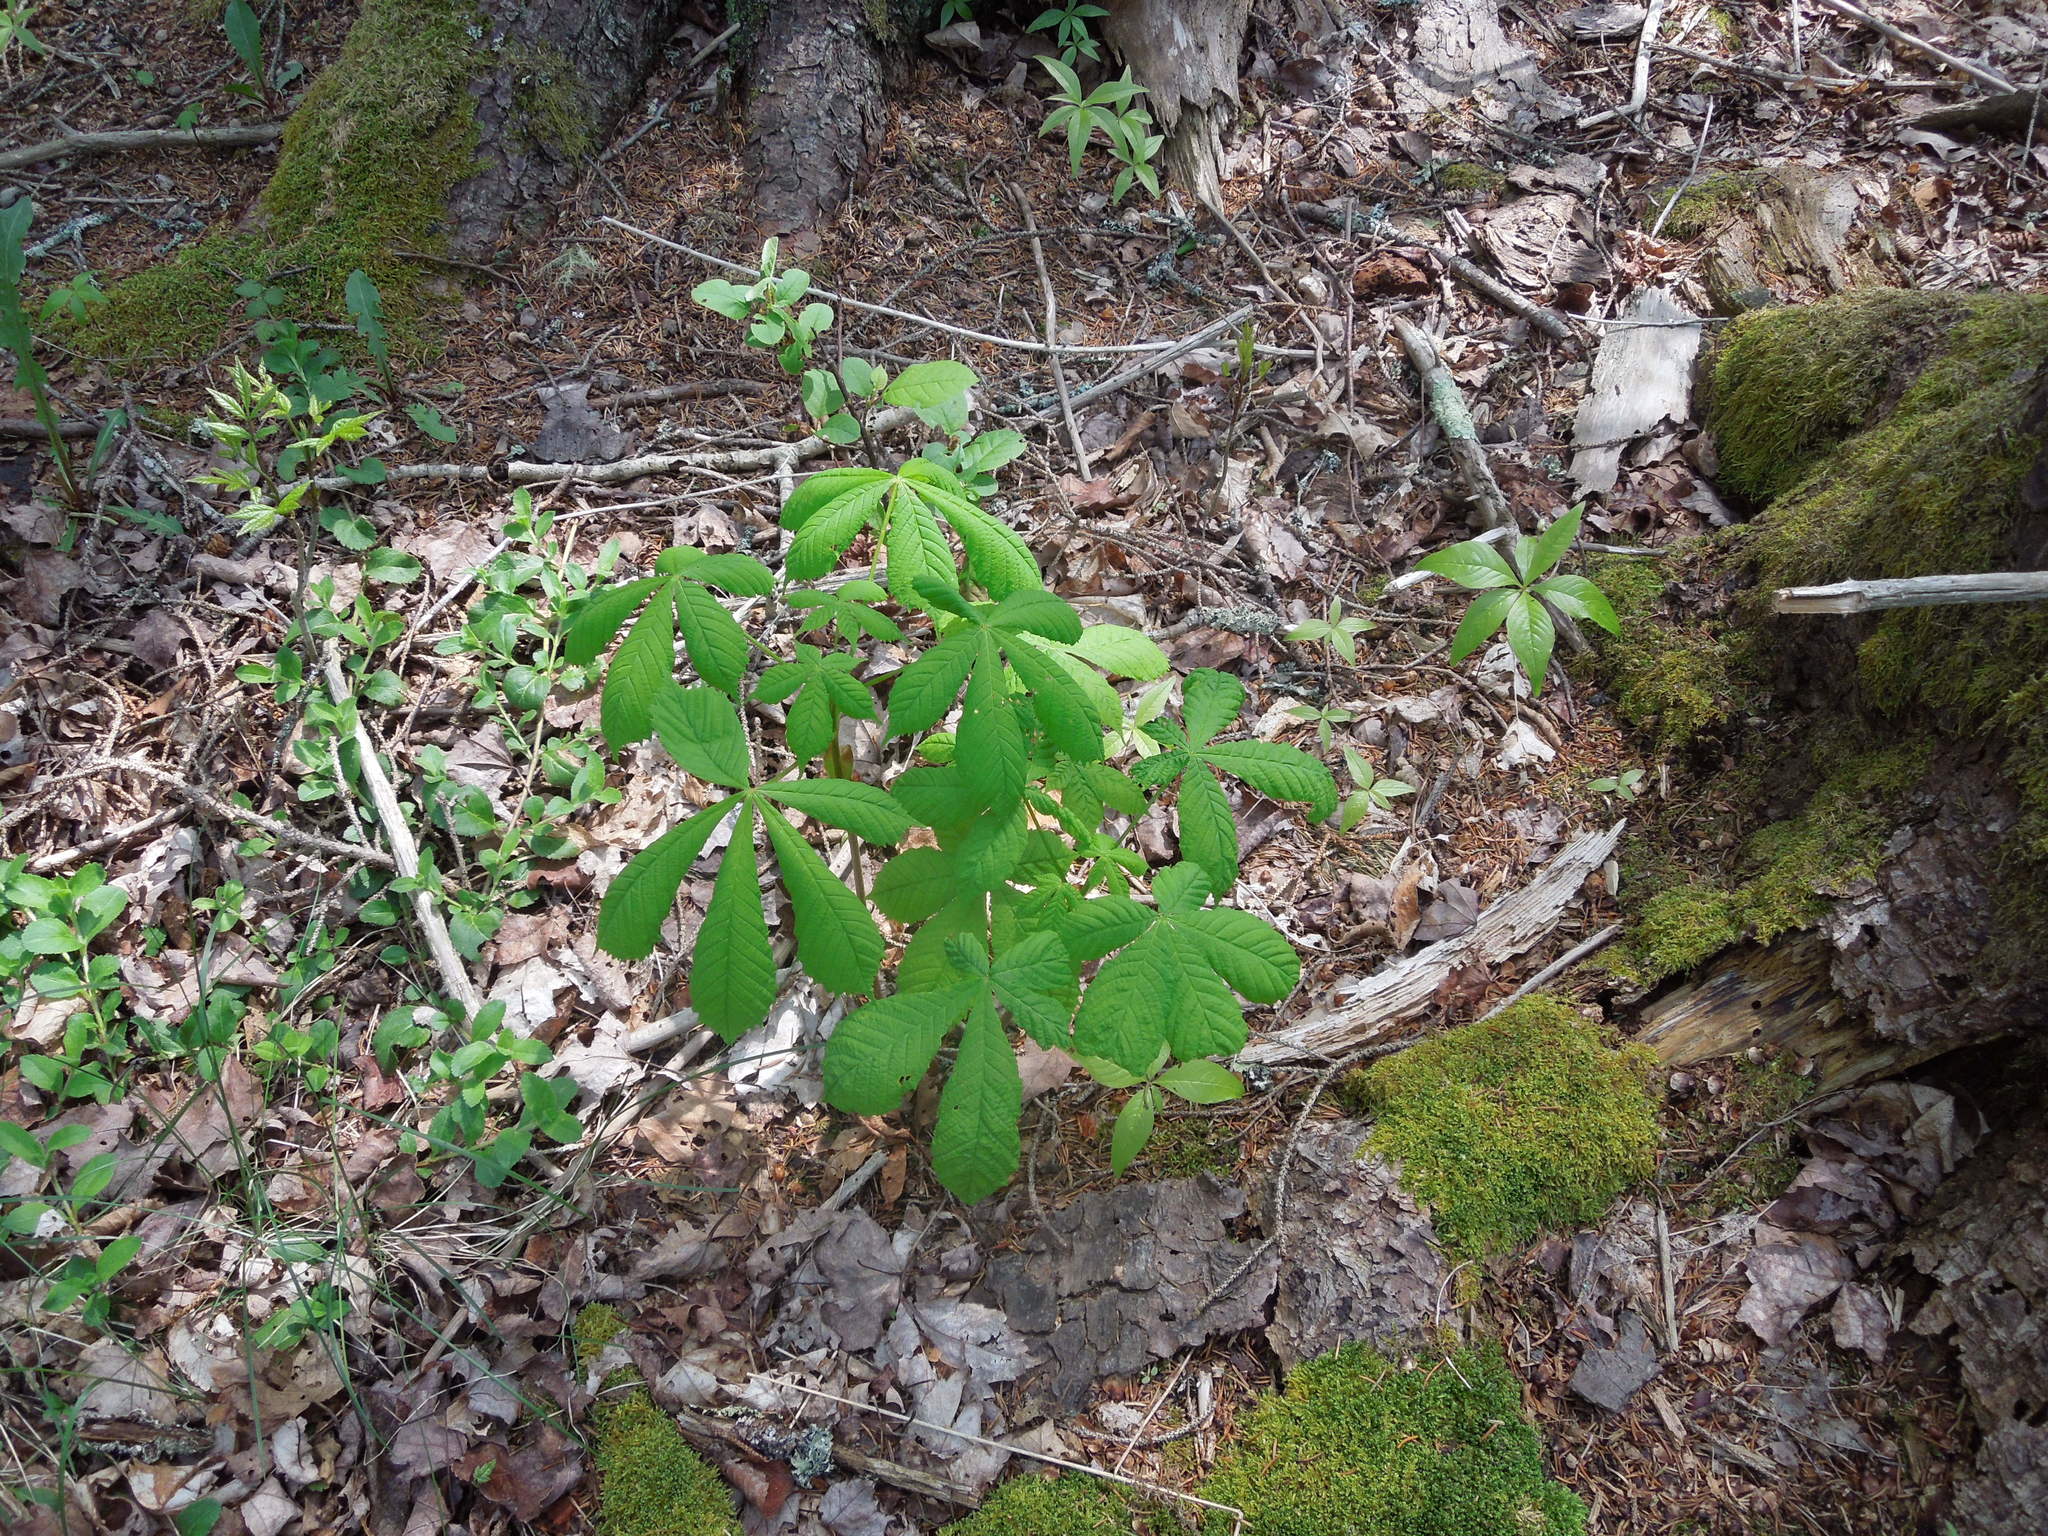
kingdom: Plantae
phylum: Tracheophyta
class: Magnoliopsida
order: Sapindales
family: Sapindaceae
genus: Aesculus
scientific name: Aesculus hippocastanum
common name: Horse-chestnut
